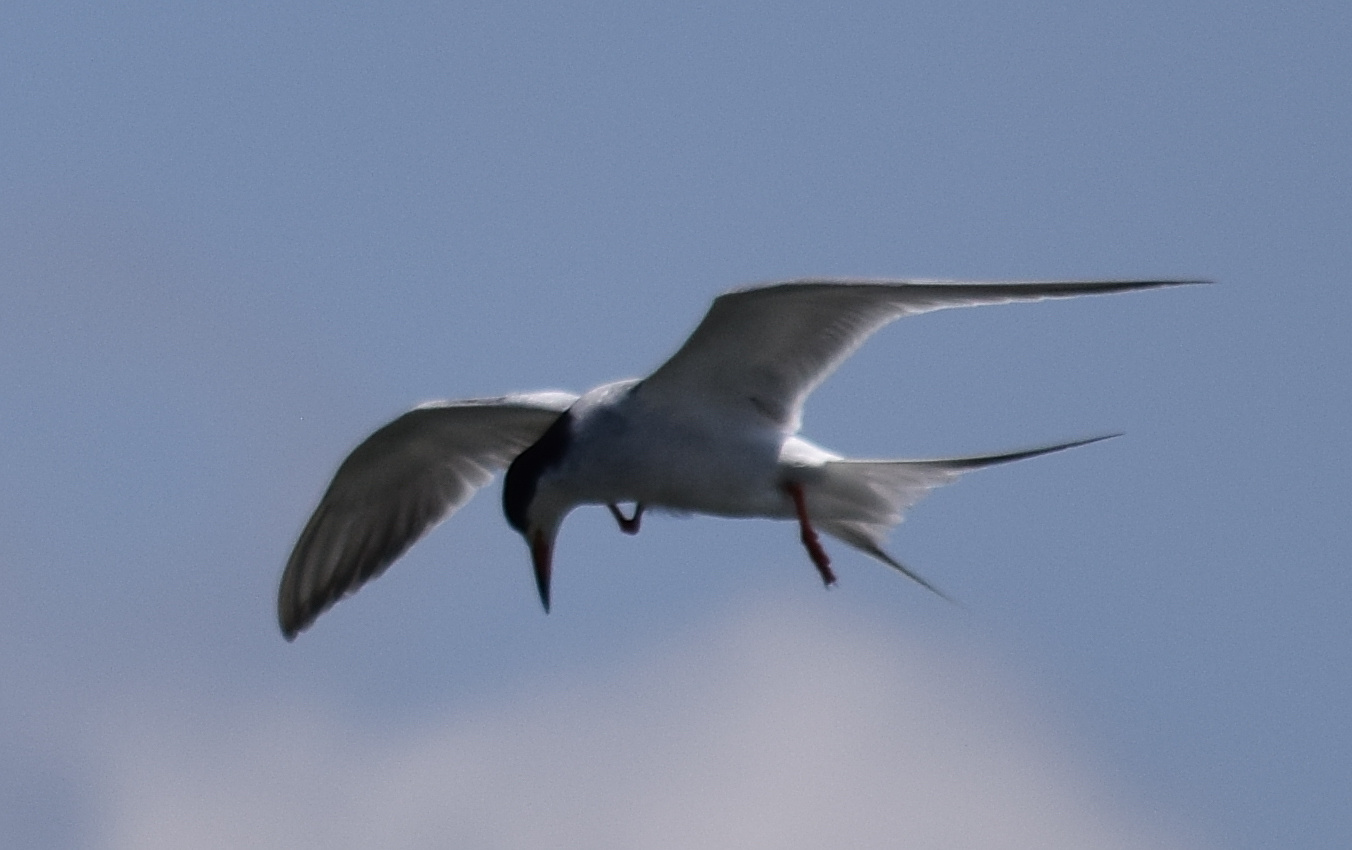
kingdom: Animalia
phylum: Chordata
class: Aves
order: Charadriiformes
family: Laridae
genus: Sterna
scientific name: Sterna forsteri
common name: Forster's tern
